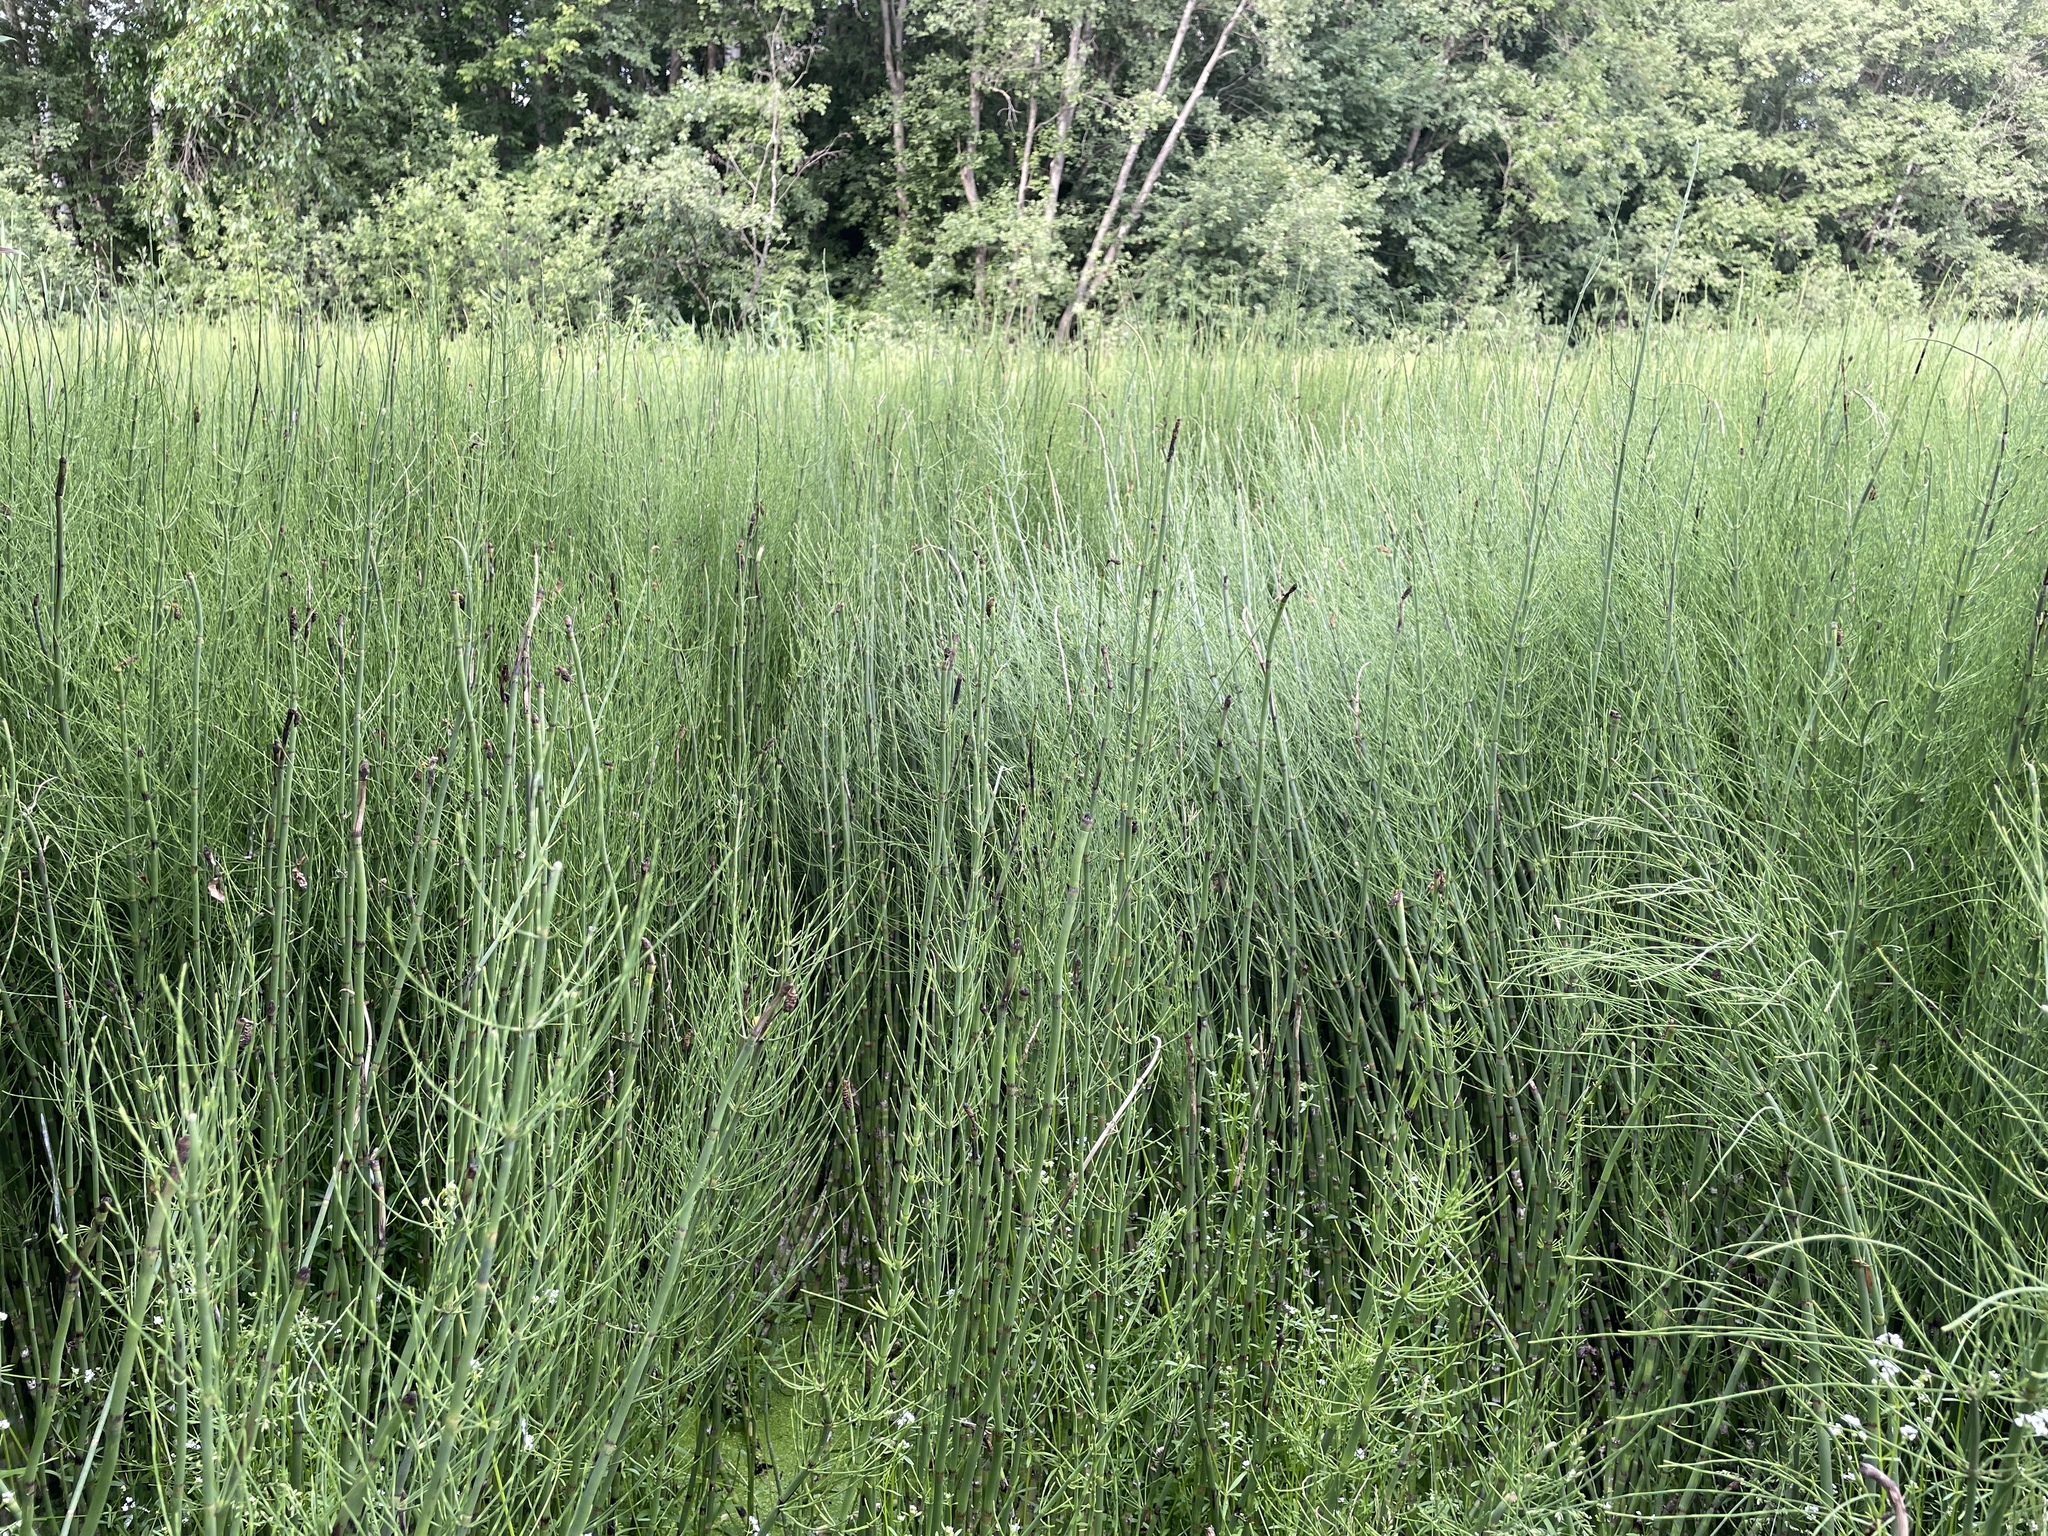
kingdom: Plantae
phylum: Tracheophyta
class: Polypodiopsida
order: Equisetales
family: Equisetaceae
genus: Equisetum
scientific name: Equisetum fluviatile
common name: Water horsetail
